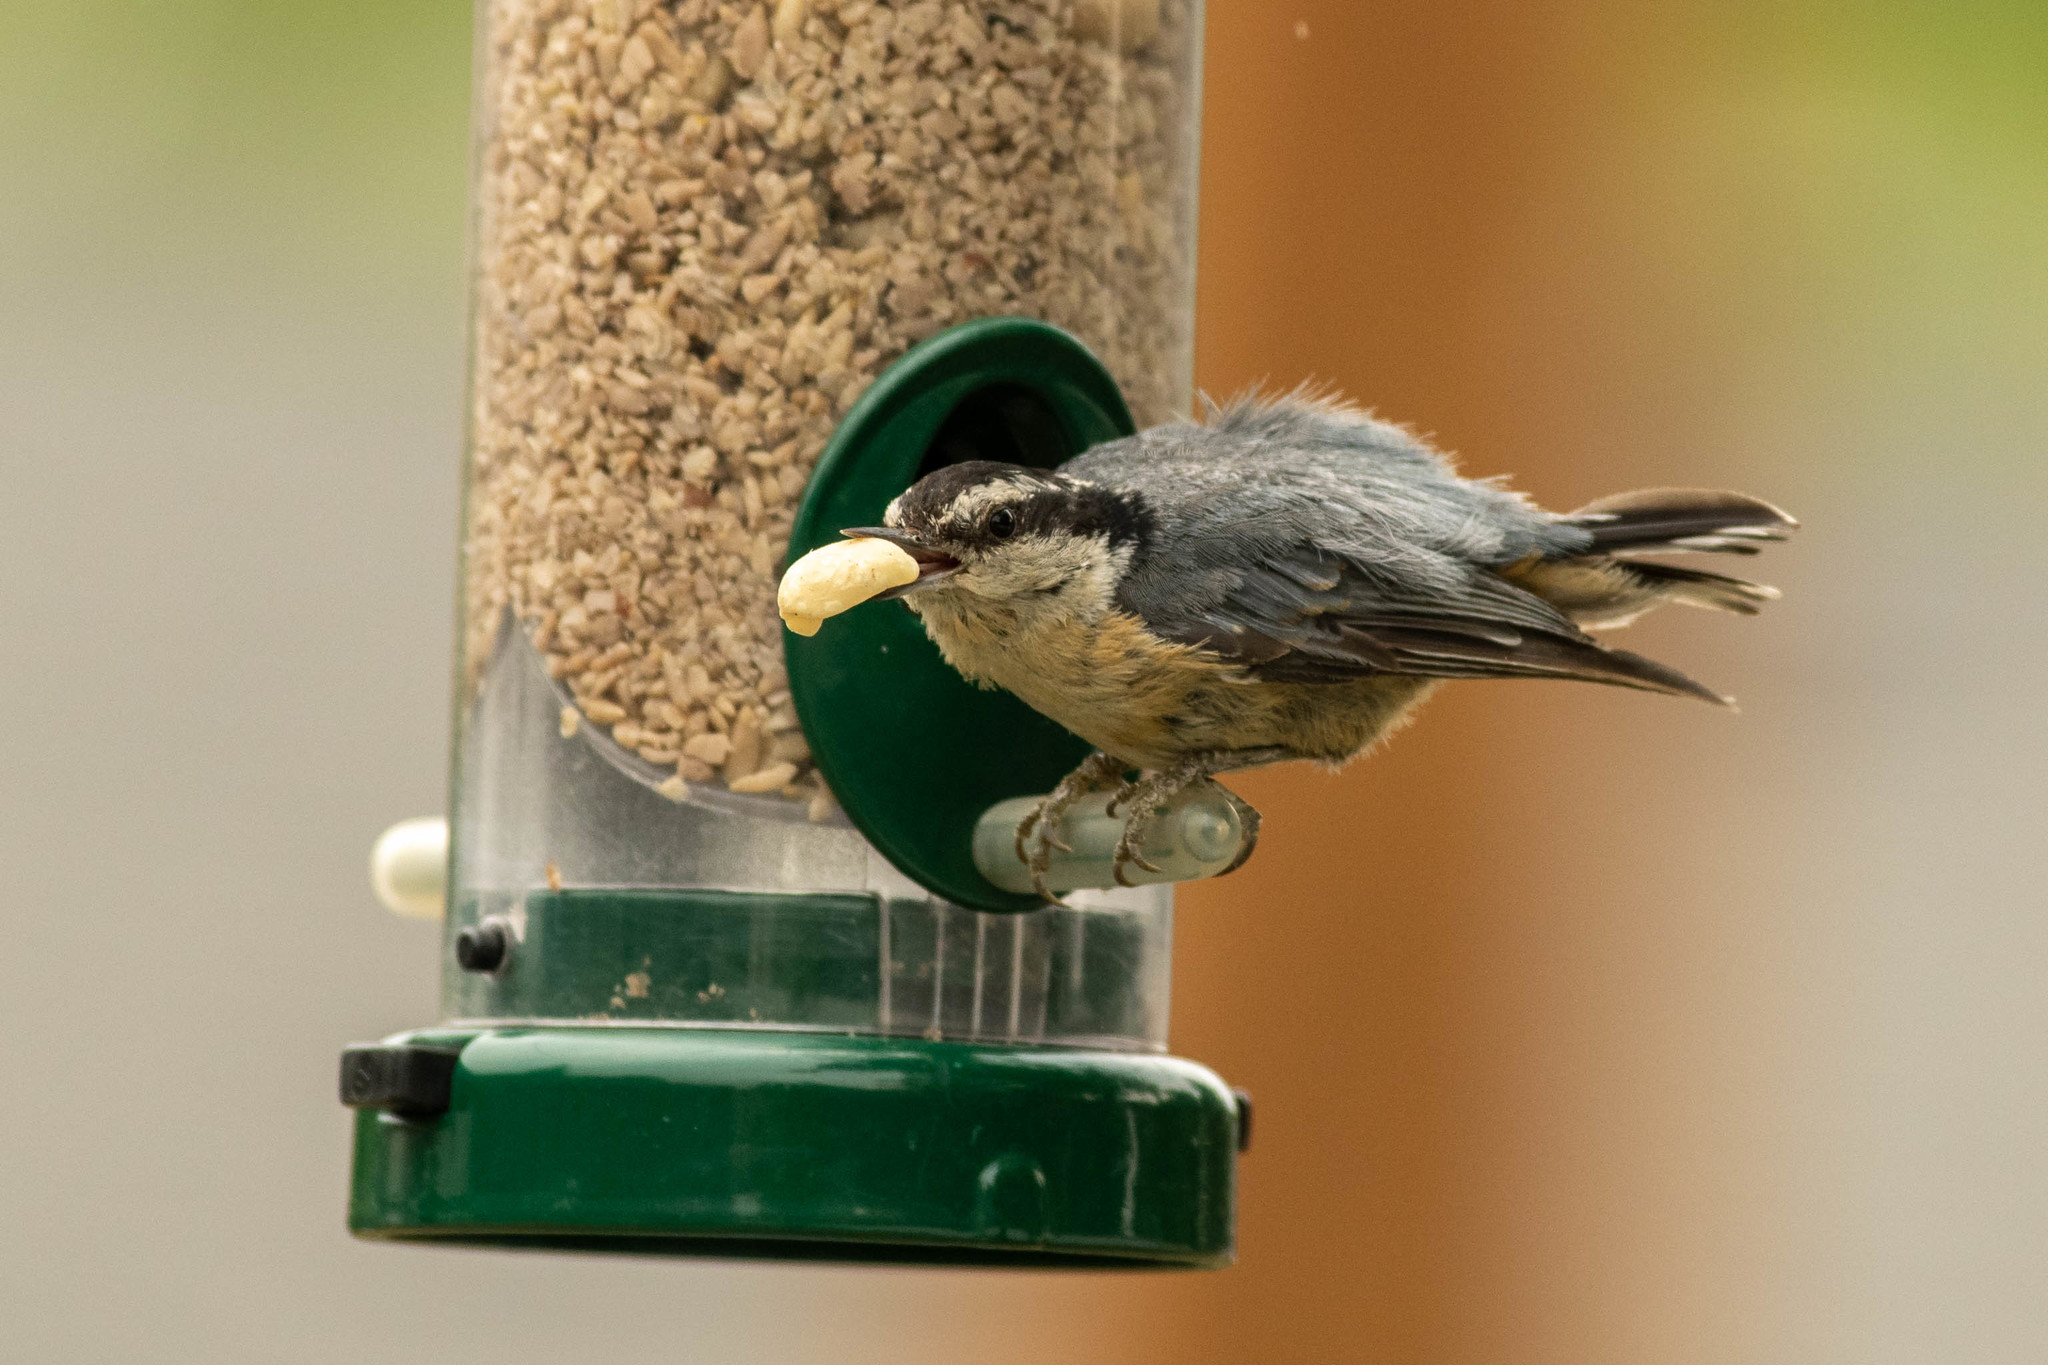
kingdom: Animalia
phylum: Chordata
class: Aves
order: Passeriformes
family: Sittidae
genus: Sitta
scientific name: Sitta canadensis
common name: Red-breasted nuthatch
